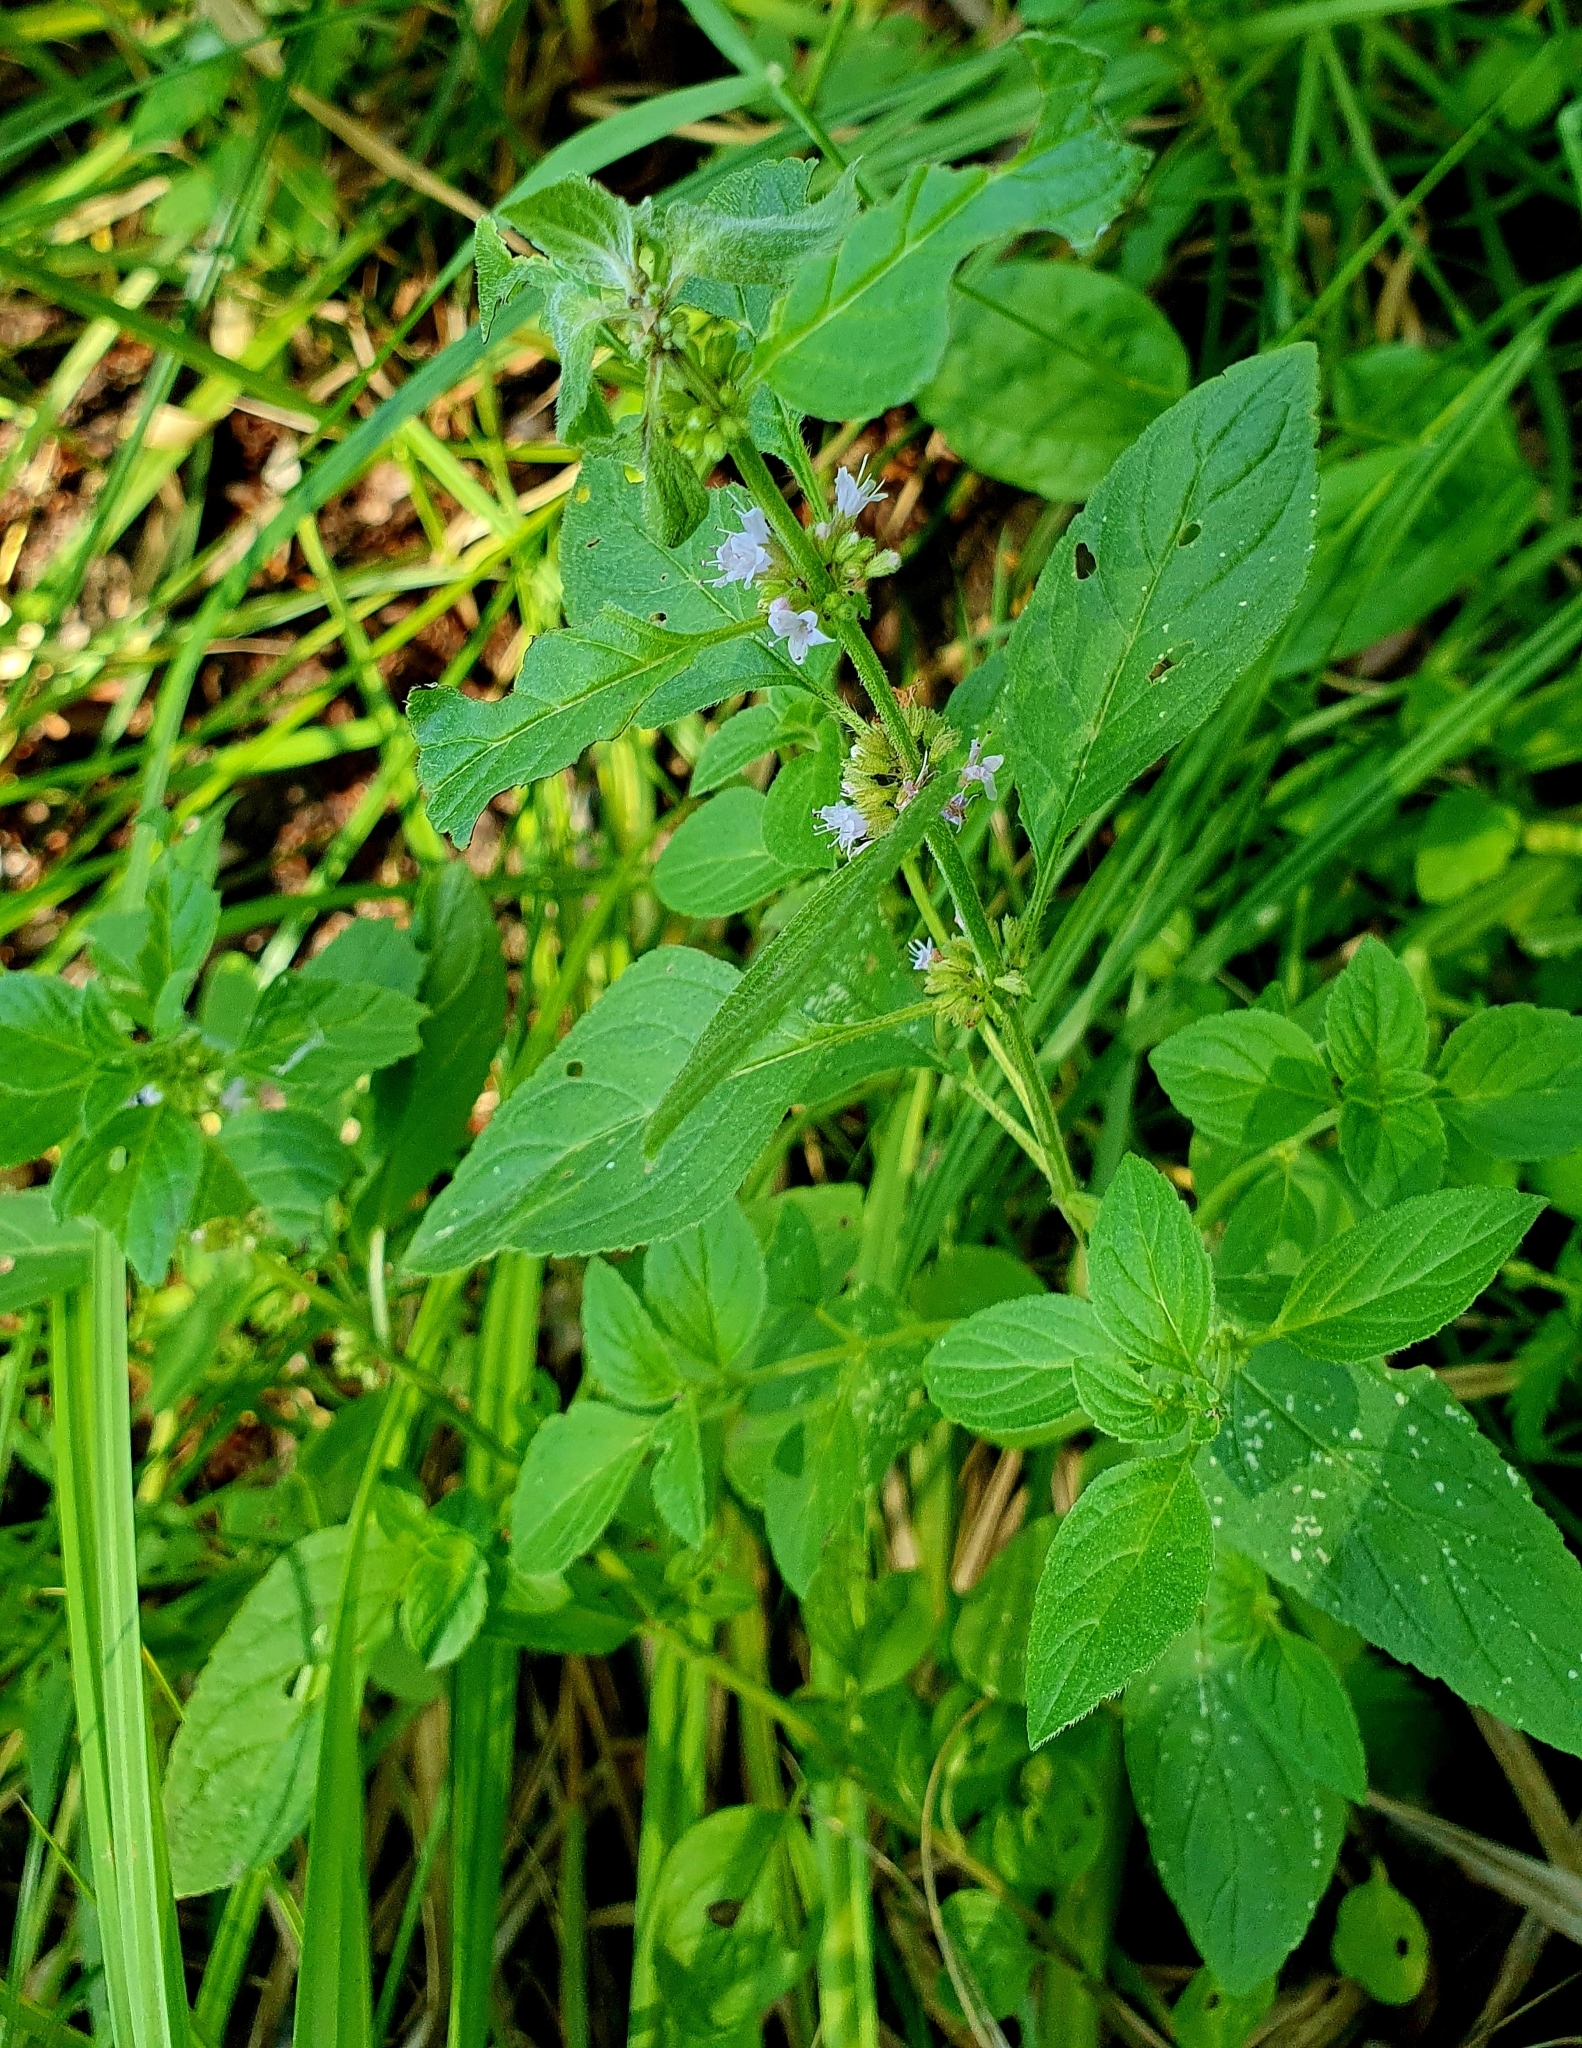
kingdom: Plantae
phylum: Tracheophyta
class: Magnoliopsida
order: Lamiales
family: Lamiaceae
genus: Mentha
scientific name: Mentha arvensis
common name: Corn mint
